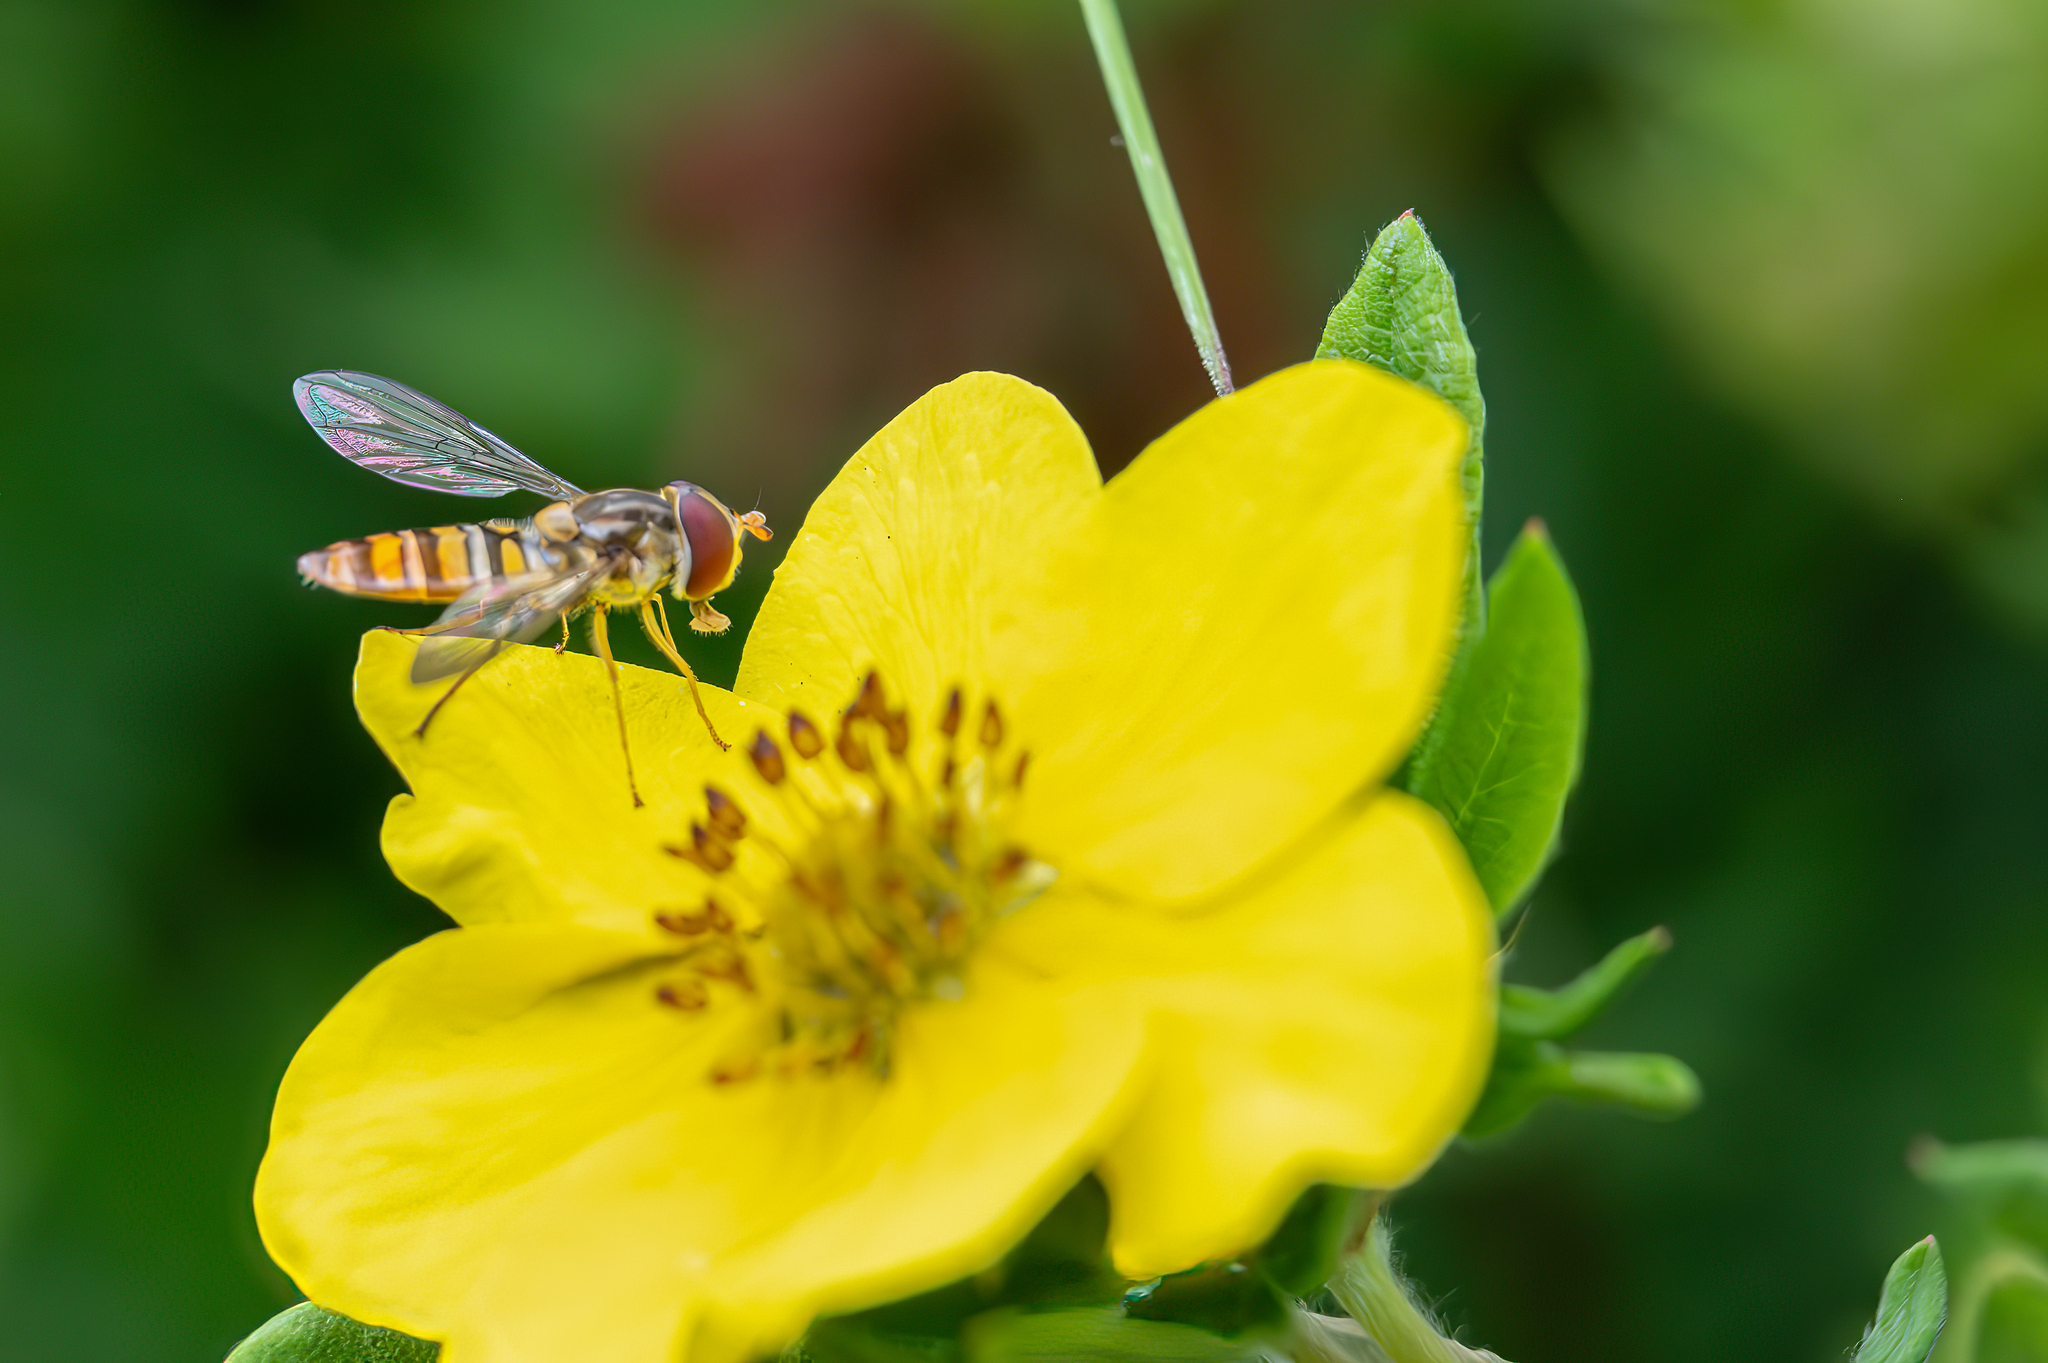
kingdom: Animalia
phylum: Arthropoda
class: Insecta
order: Diptera
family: Syrphidae
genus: Episyrphus
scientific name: Episyrphus balteatus
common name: Marmalade hoverfly
